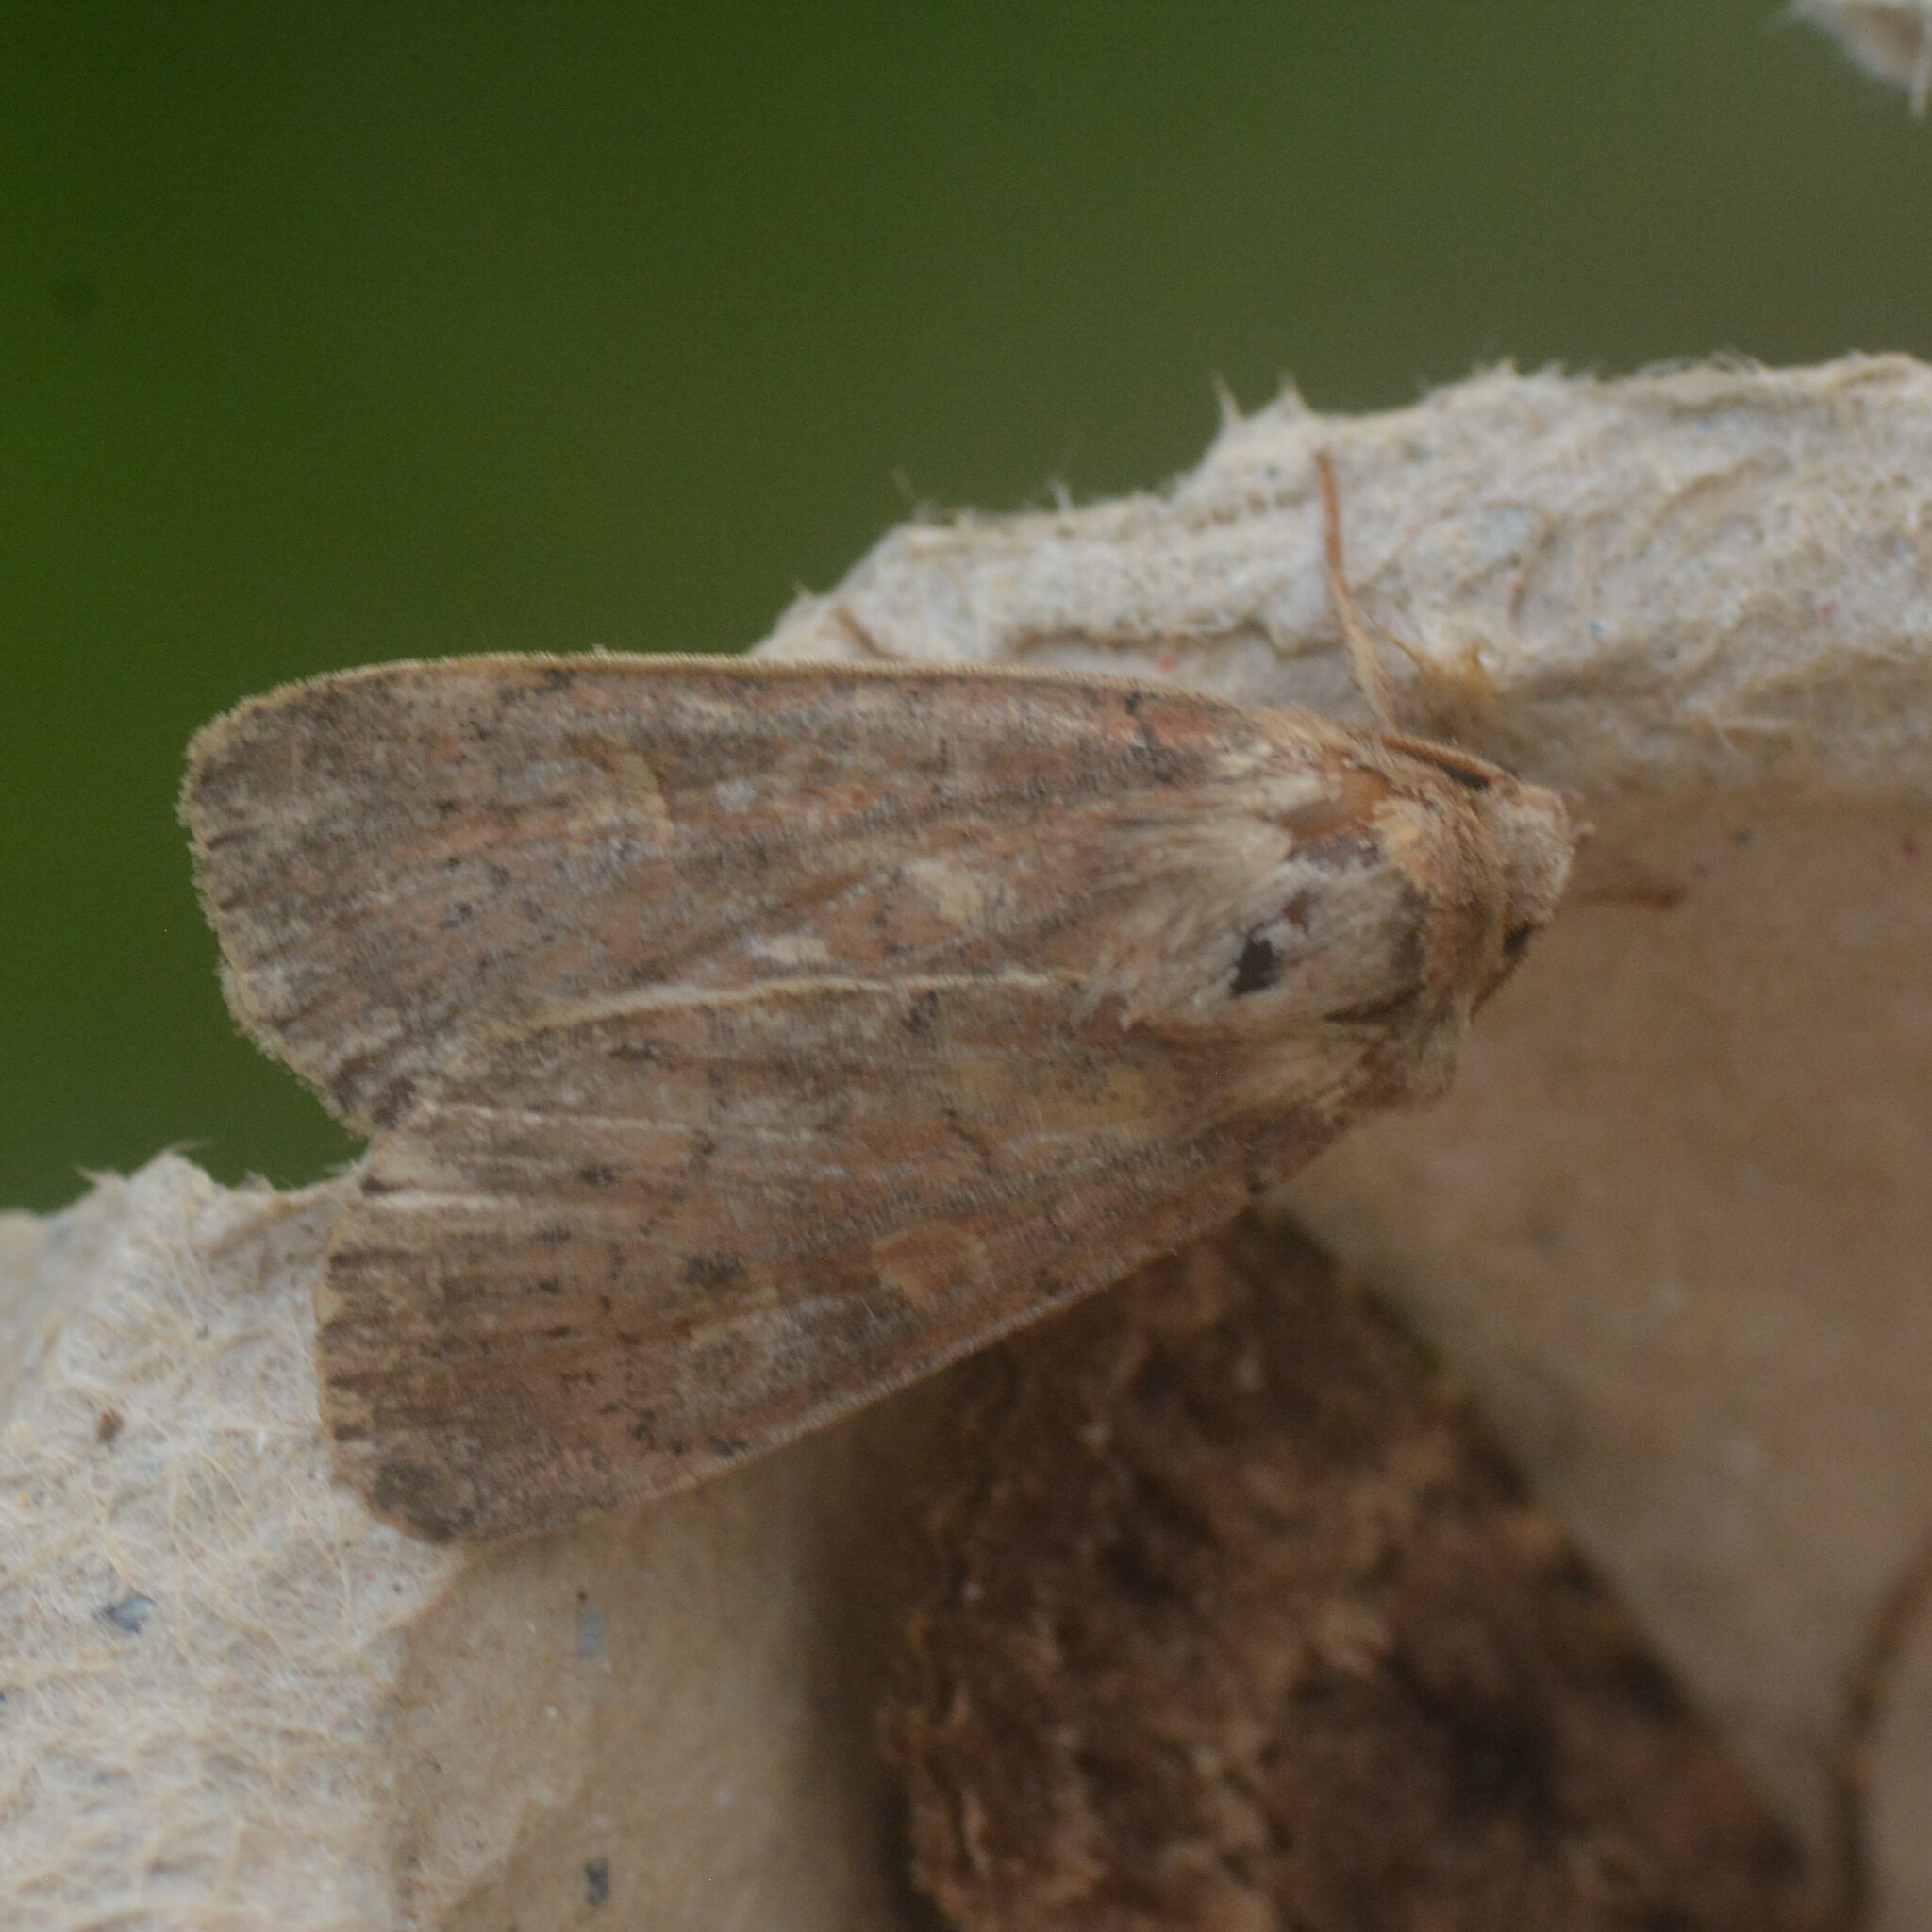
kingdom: Animalia
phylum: Arthropoda
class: Insecta
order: Lepidoptera
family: Noctuidae
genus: Xestia
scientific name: Xestia xanthographa
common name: Square-spot rustic
